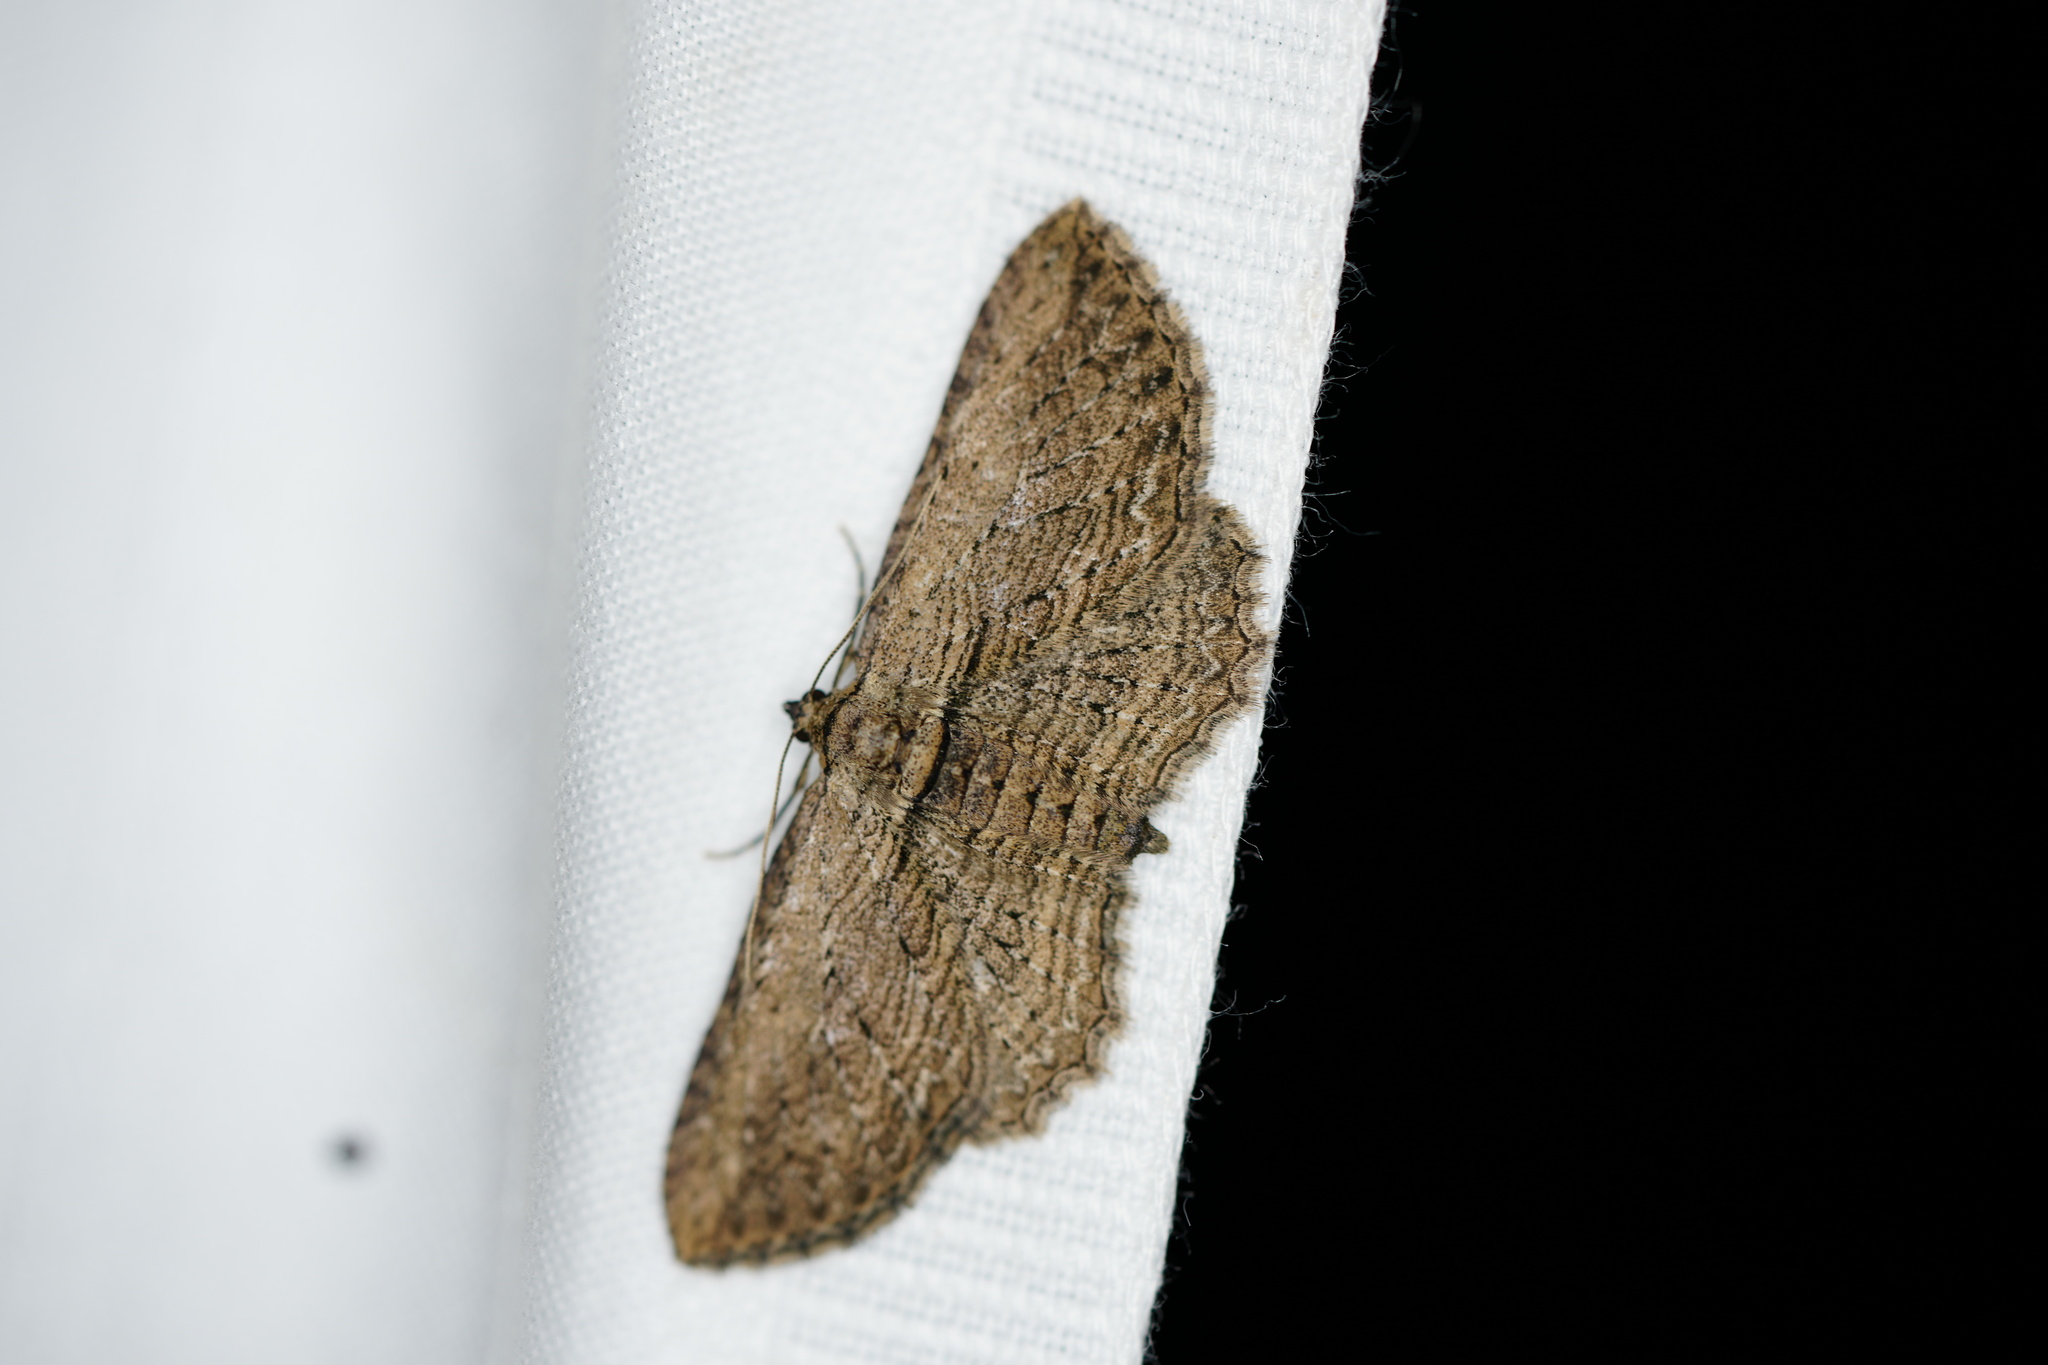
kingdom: Animalia
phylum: Arthropoda
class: Insecta
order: Lepidoptera
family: Geometridae
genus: Horisme
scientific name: Horisme intestinata
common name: Brown bark carpet
